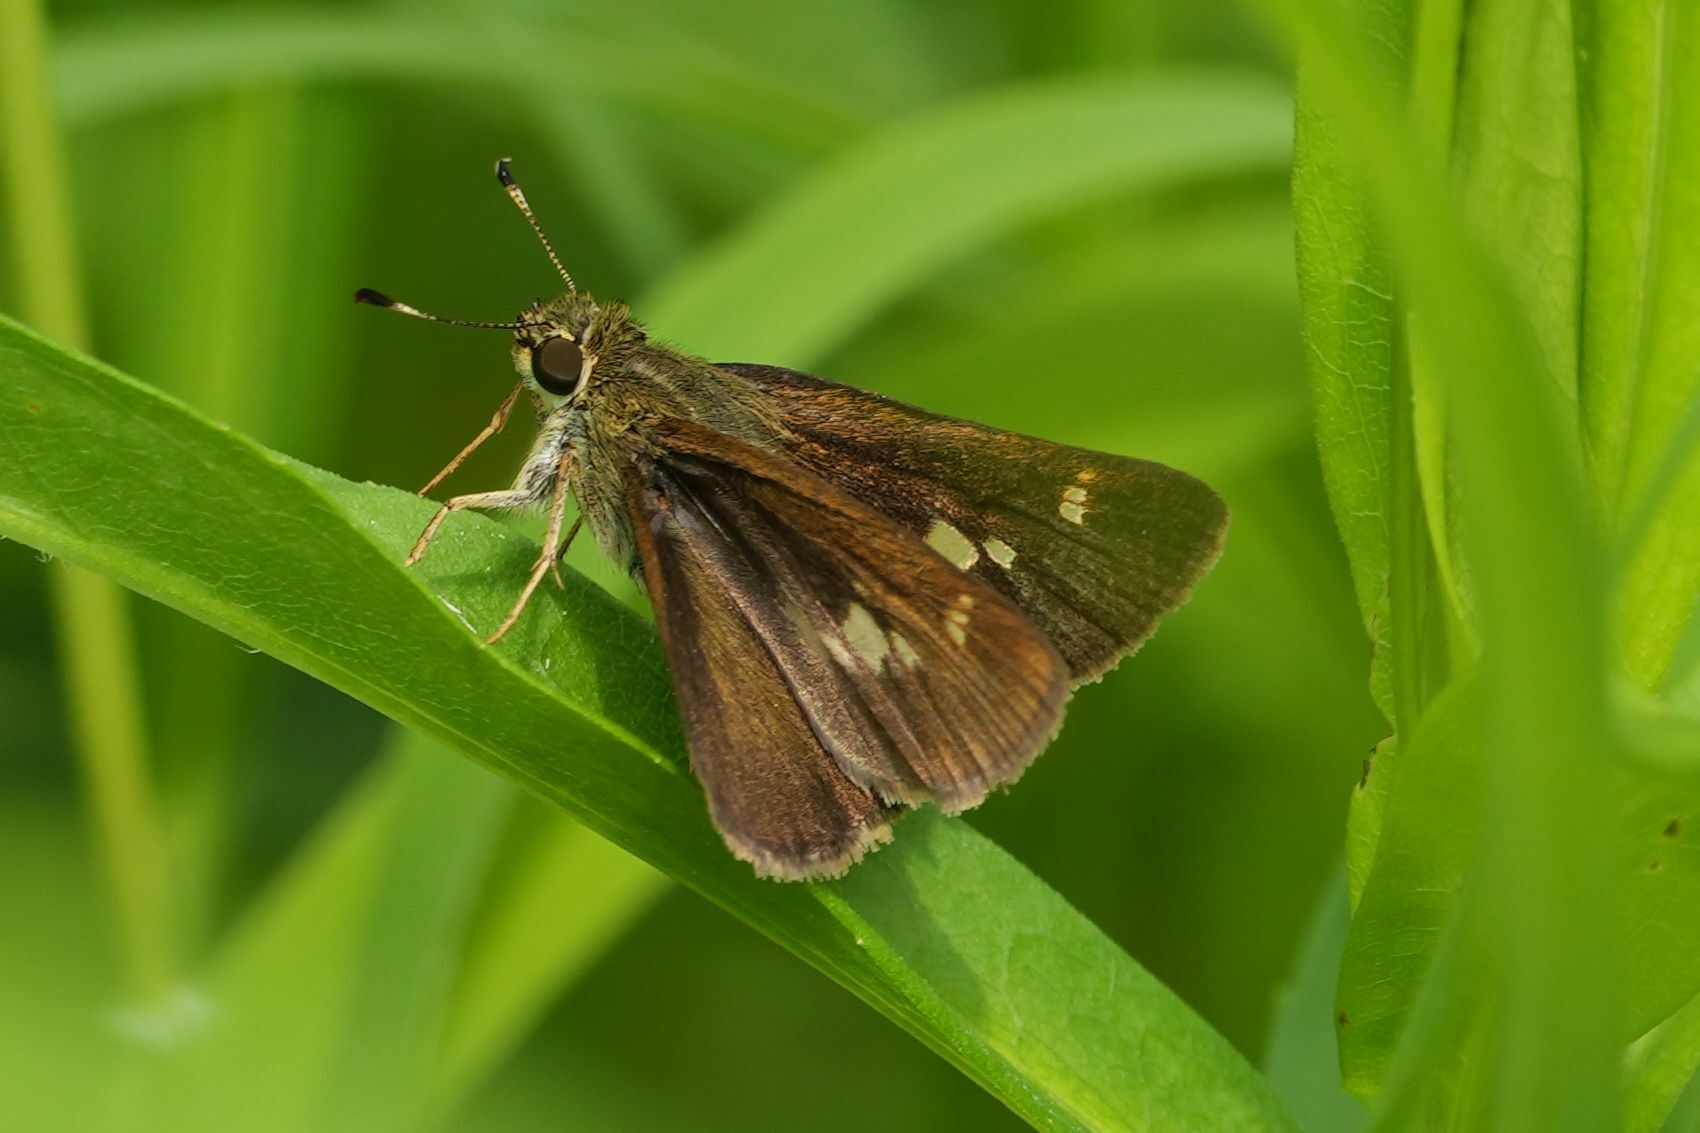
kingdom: Animalia
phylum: Arthropoda
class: Insecta
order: Lepidoptera
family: Hesperiidae
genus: Vernia
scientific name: Vernia verna
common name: Little glassywing
